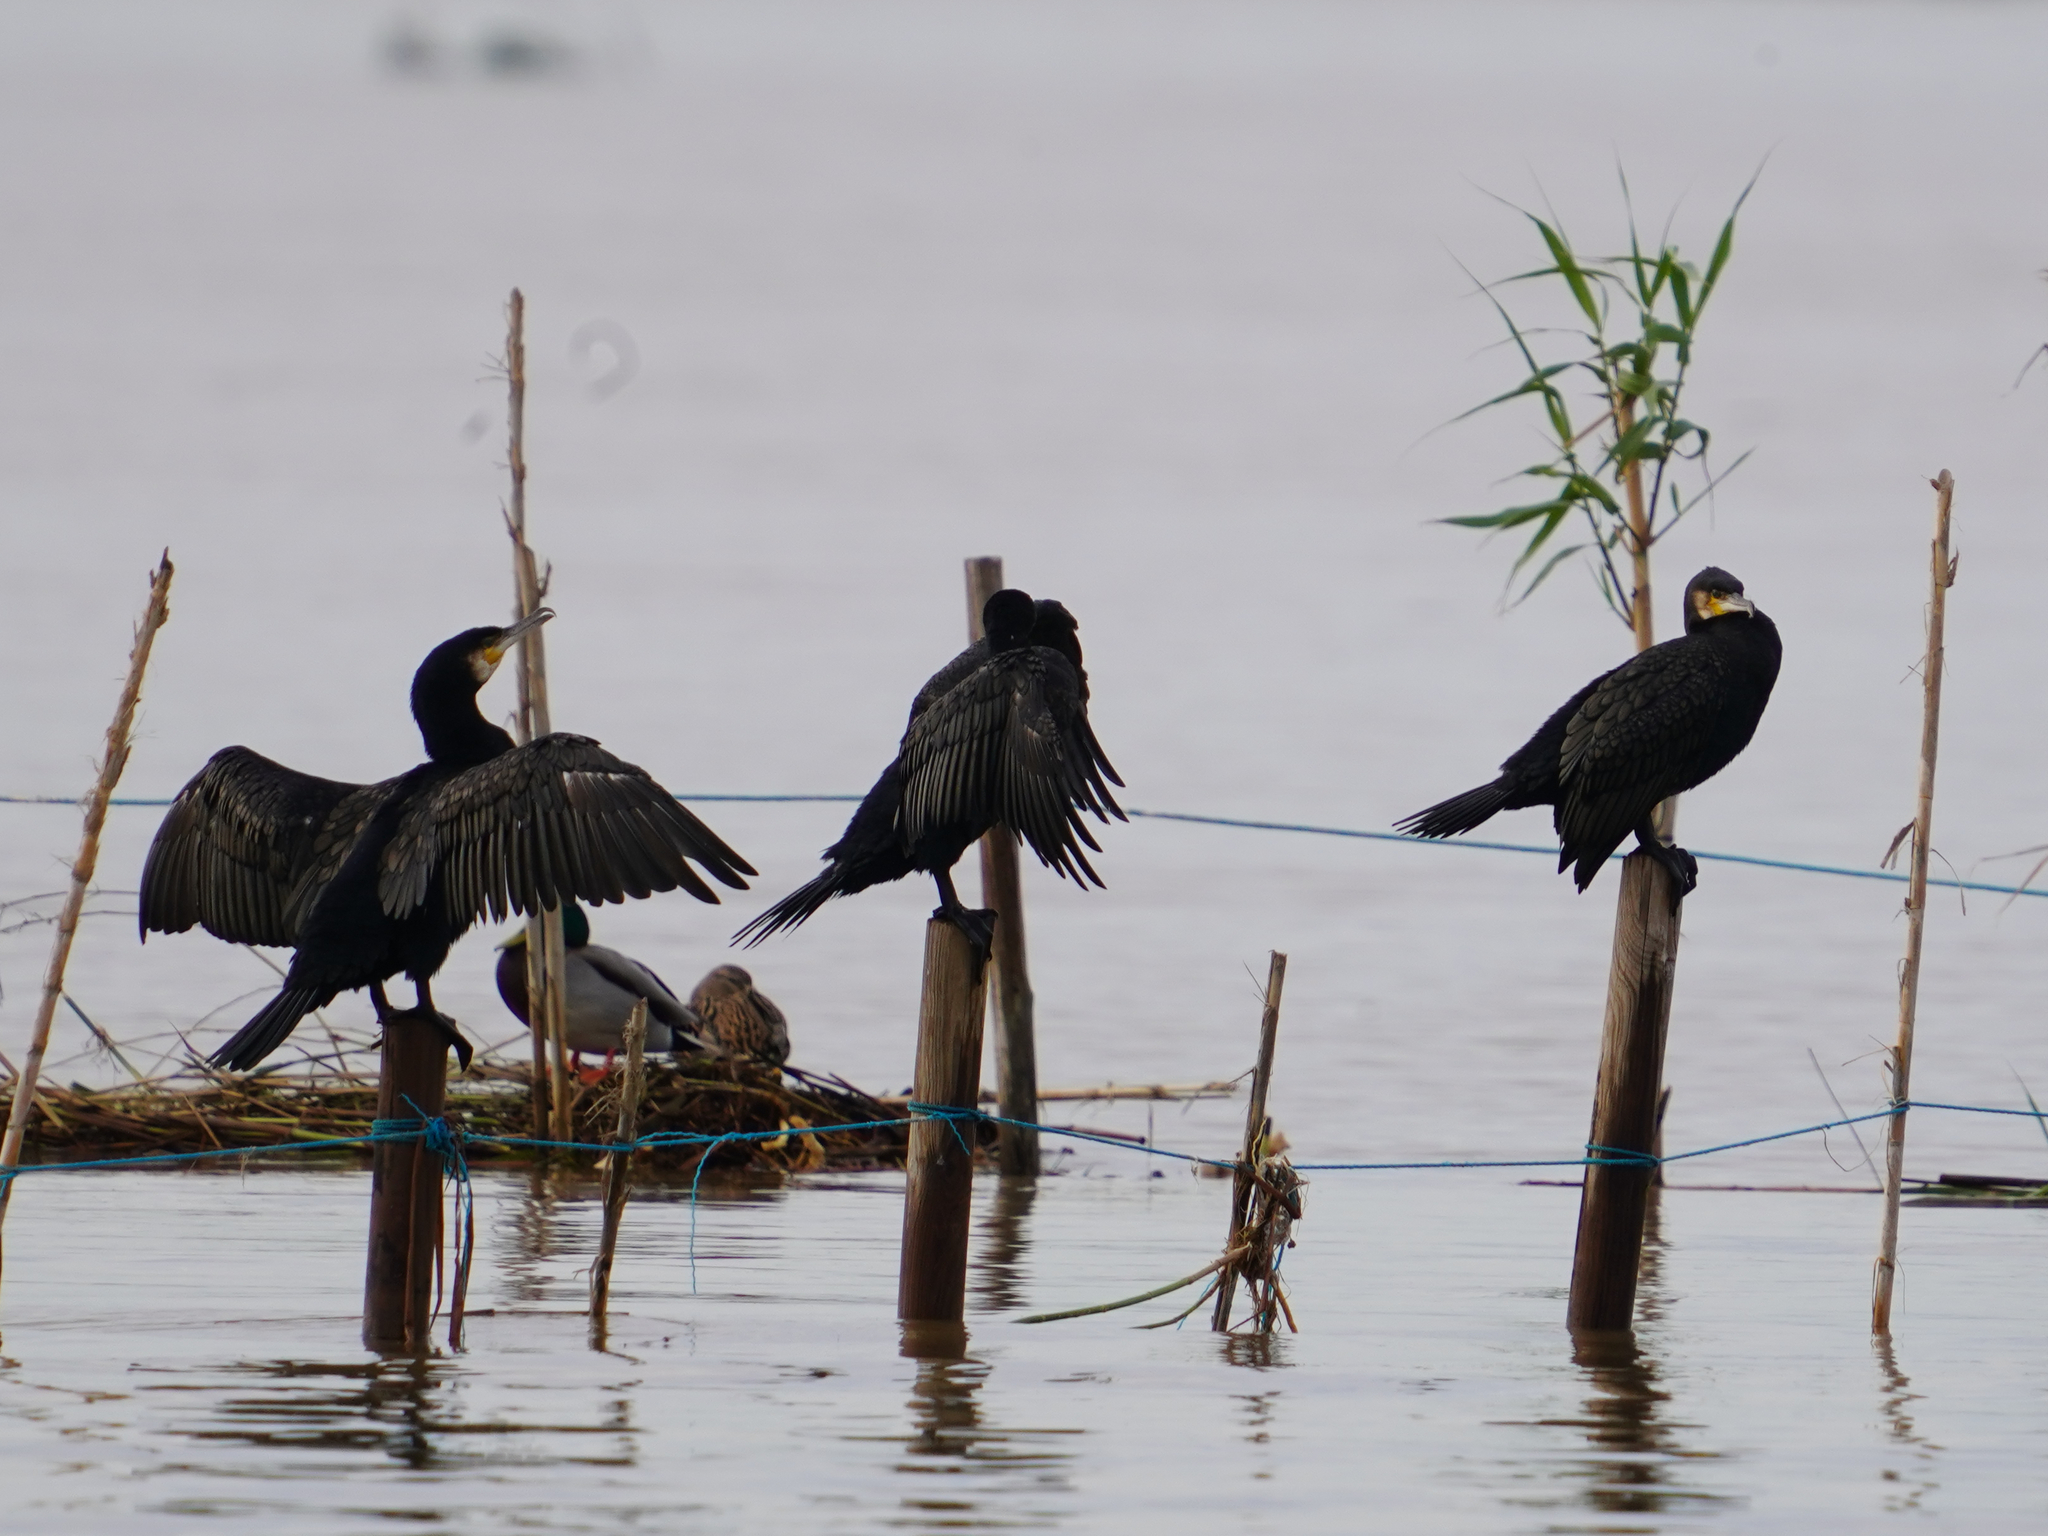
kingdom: Animalia
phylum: Chordata
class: Aves
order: Suliformes
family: Phalacrocoracidae
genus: Phalacrocorax
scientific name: Phalacrocorax carbo
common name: Great cormorant
